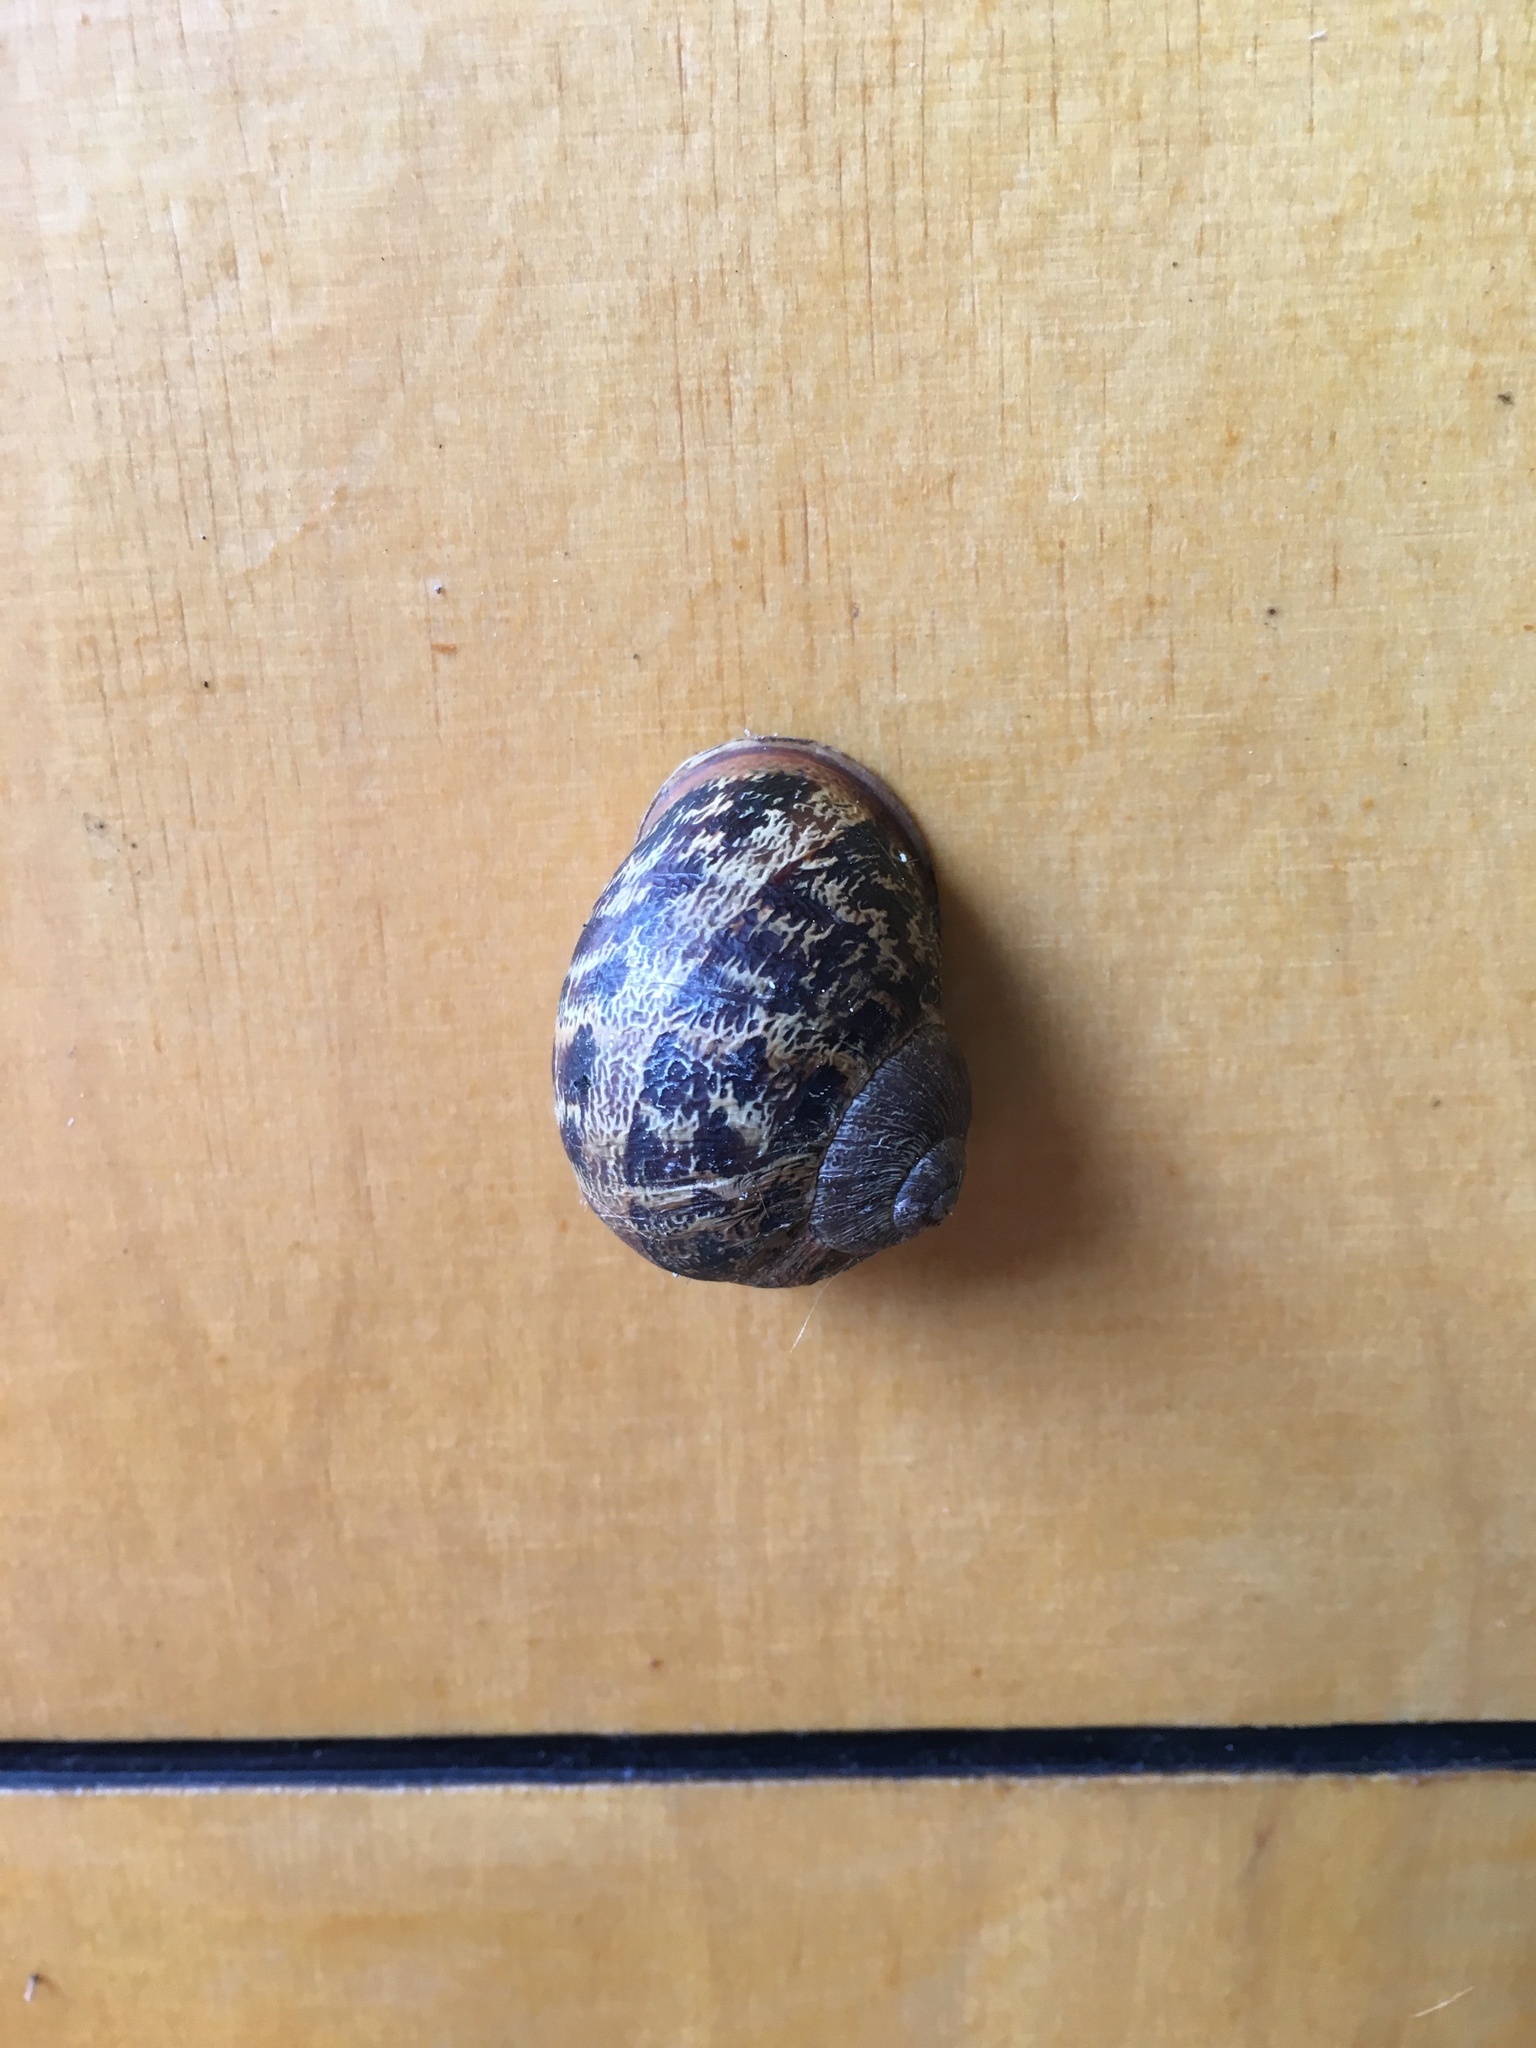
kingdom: Animalia
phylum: Mollusca
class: Gastropoda
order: Stylommatophora
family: Helicidae
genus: Cornu
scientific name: Cornu aspersum
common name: Brown garden snail
